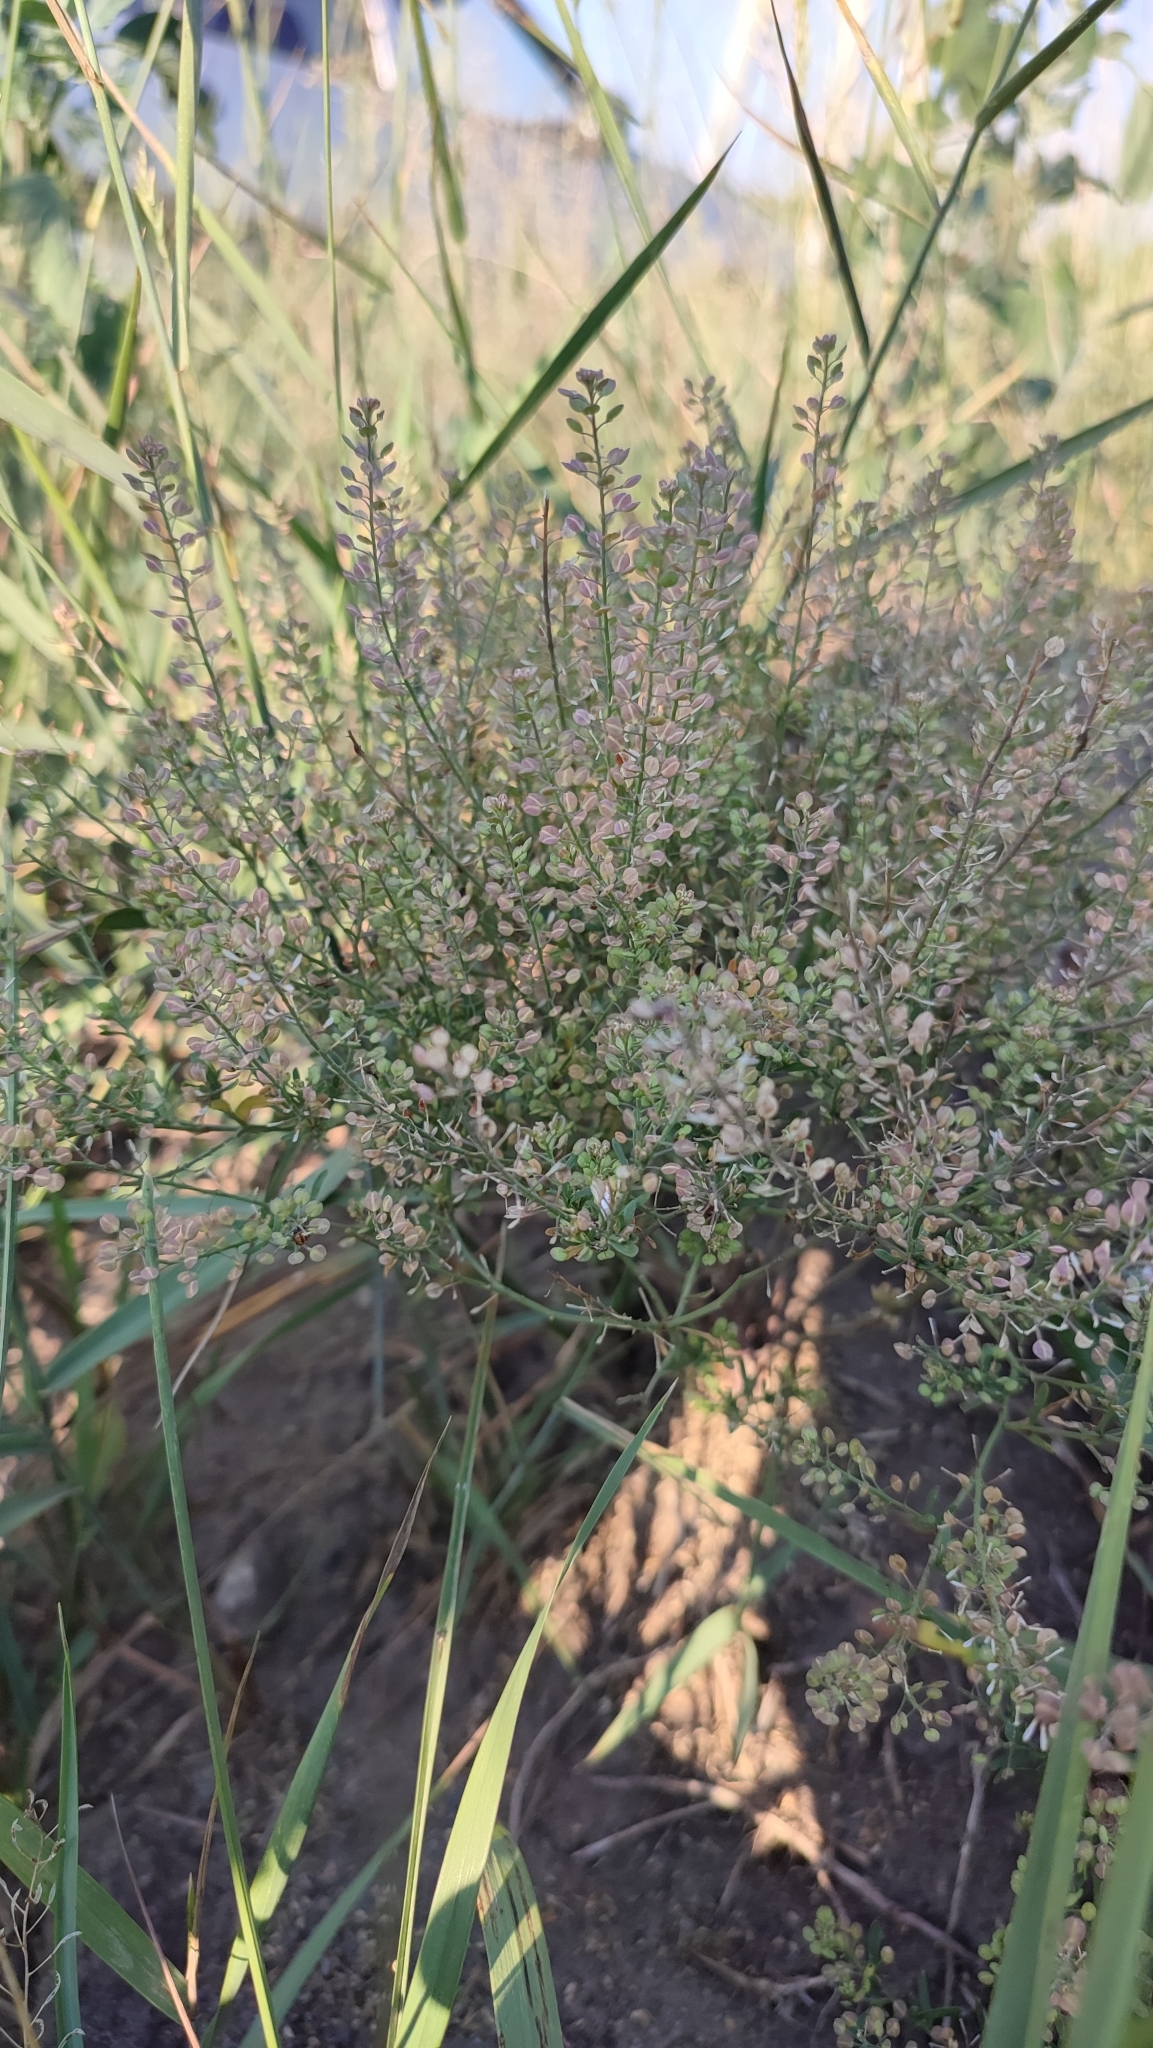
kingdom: Plantae
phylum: Tracheophyta
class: Magnoliopsida
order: Brassicales
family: Brassicaceae
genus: Lepidium
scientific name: Lepidium ruderale
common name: Narrow-leaved pepperwort
